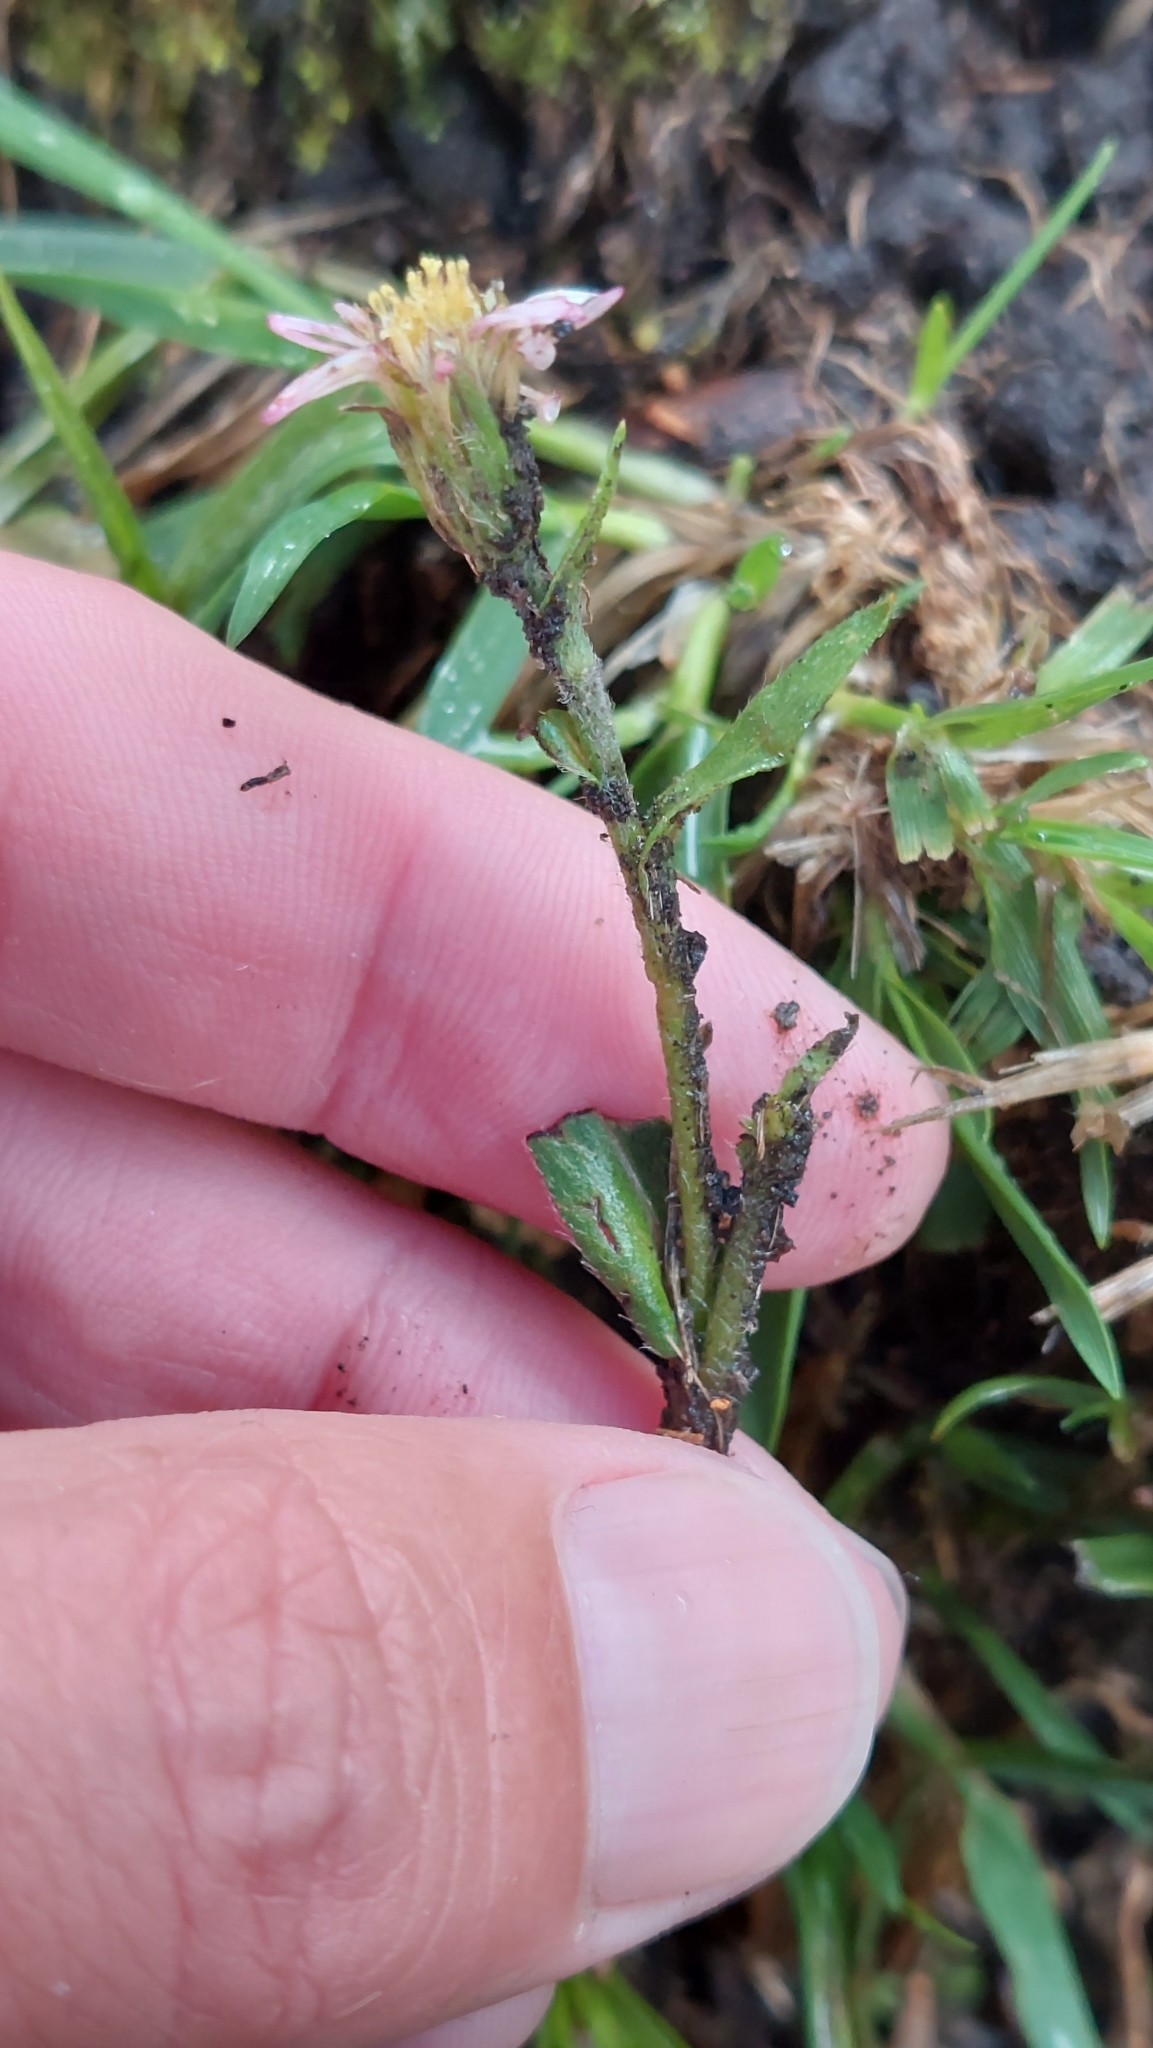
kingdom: Plantae
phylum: Tracheophyta
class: Magnoliopsida
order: Asterales
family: Asteraceae
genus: Noticastrum
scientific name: Noticastrum marginatum
